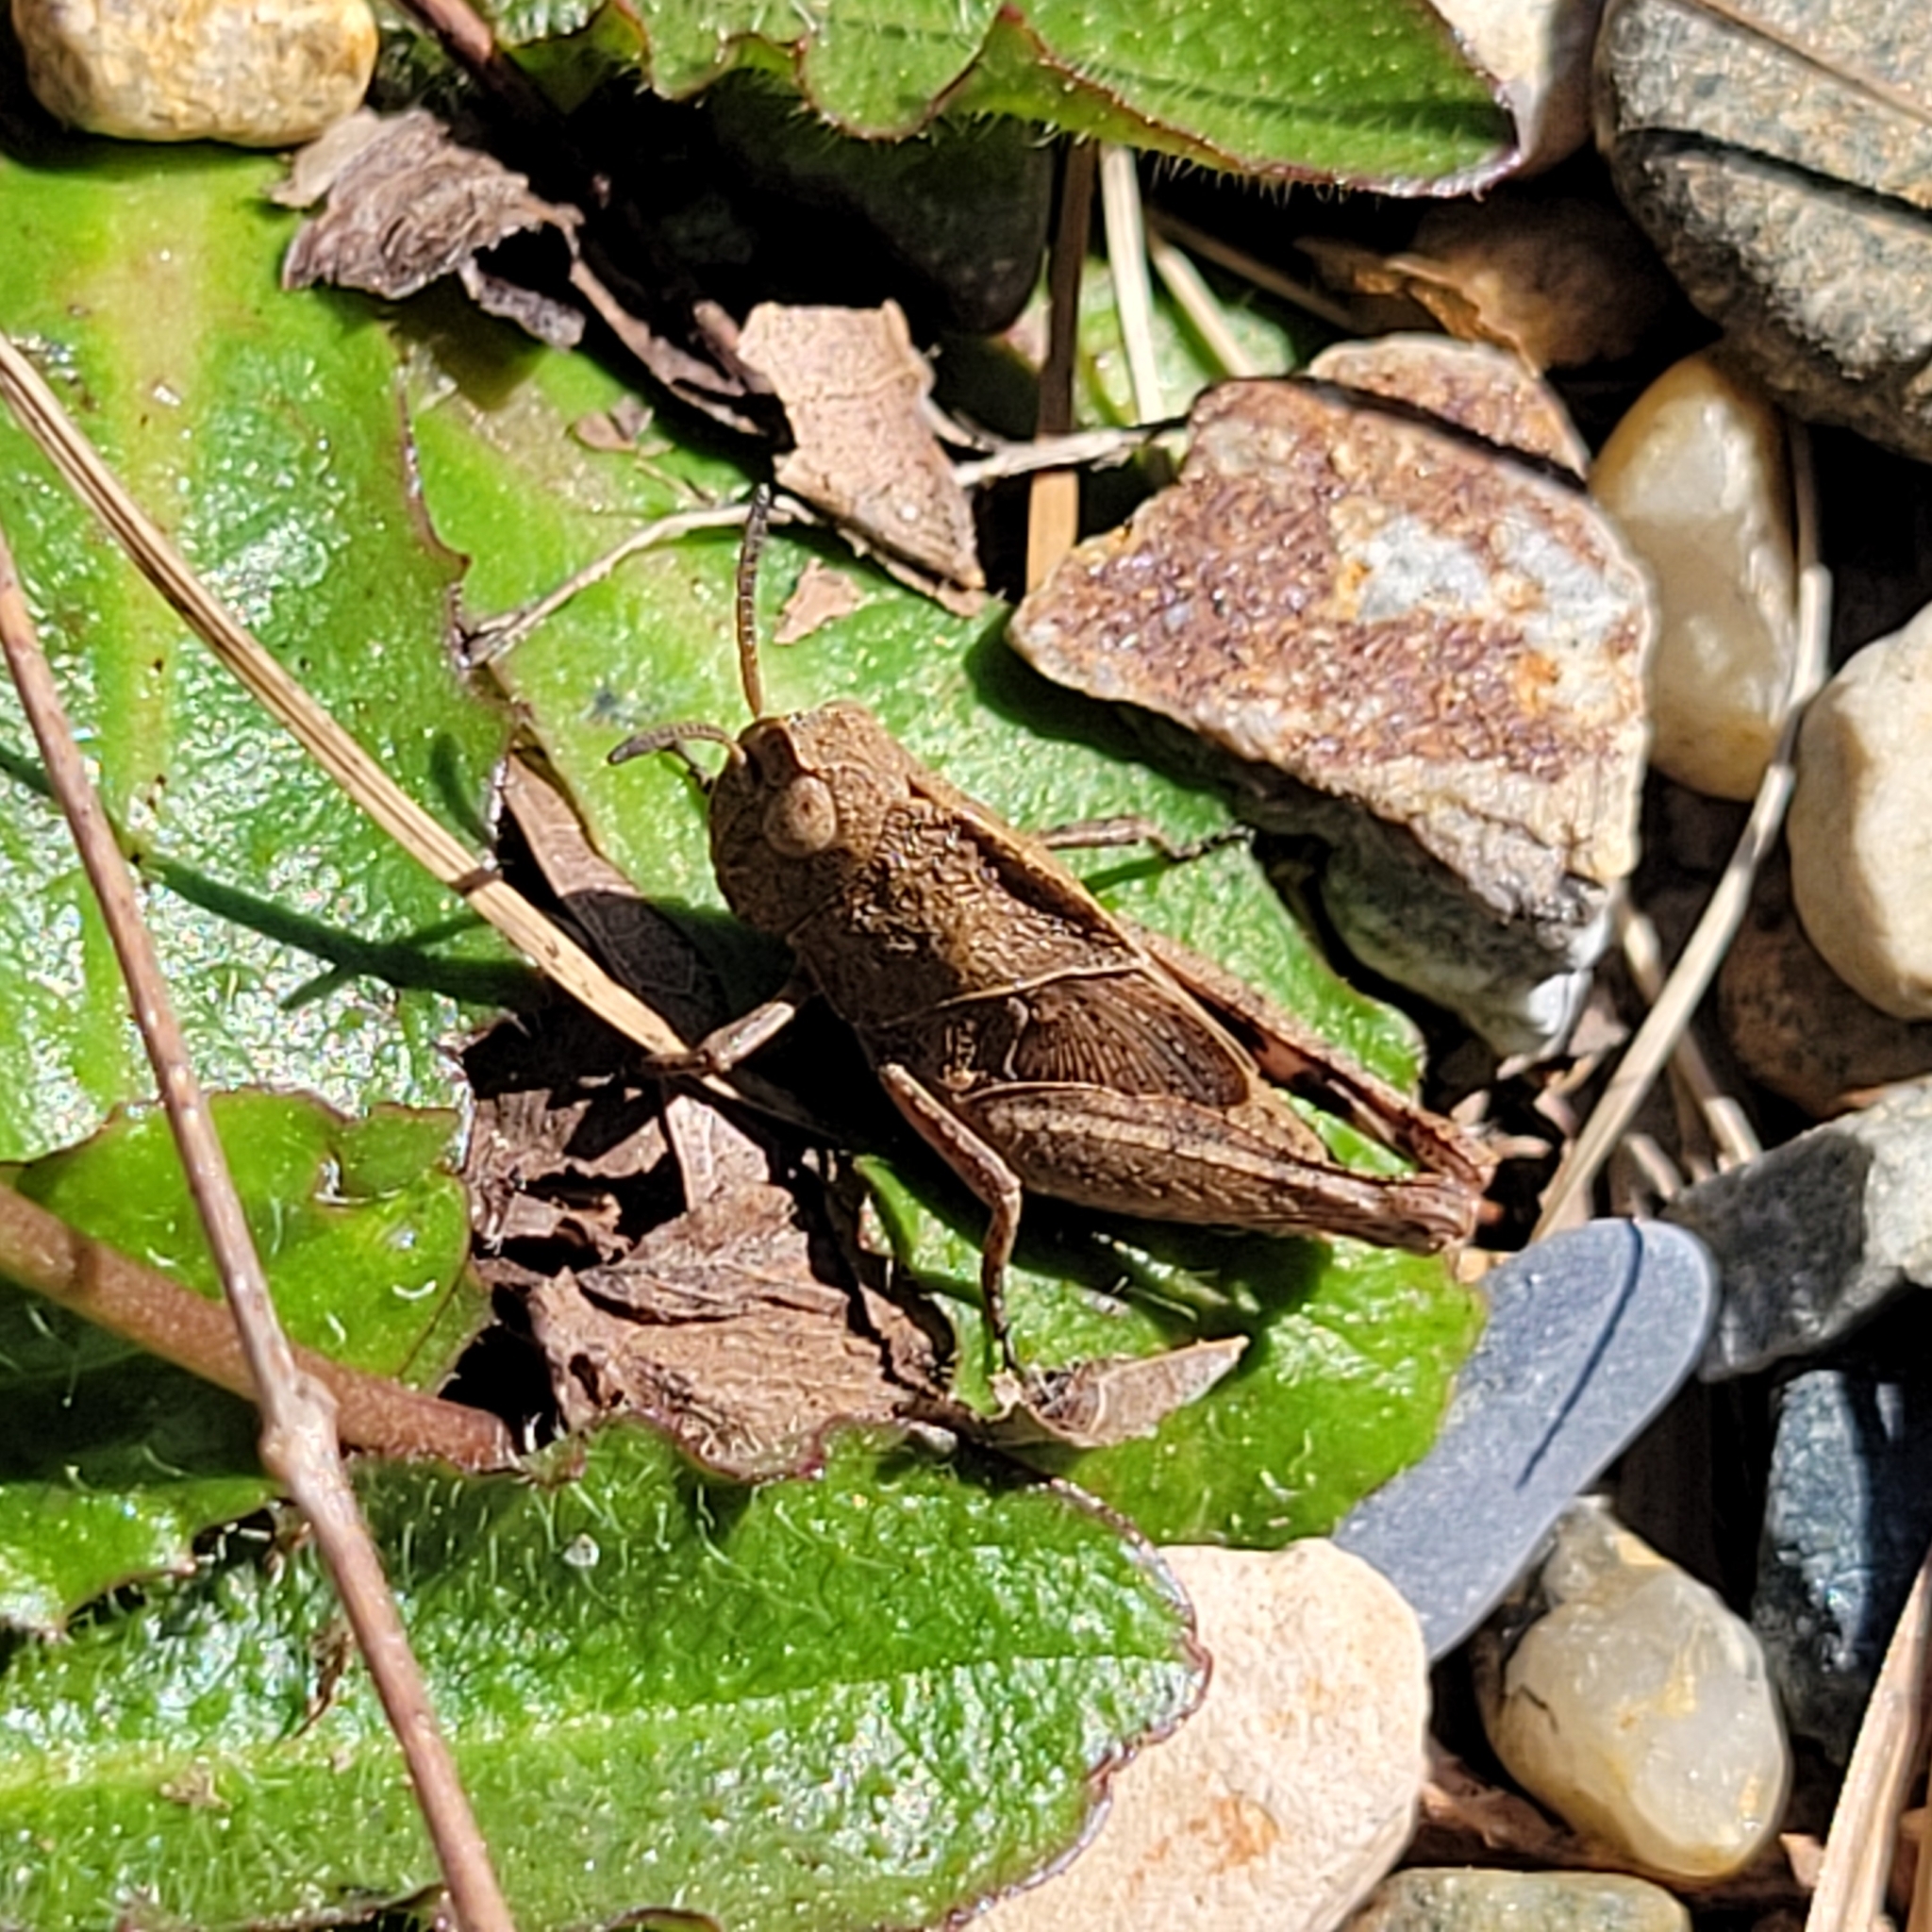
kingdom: Animalia
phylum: Arthropoda
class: Insecta
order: Orthoptera
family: Acrididae
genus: Arphia
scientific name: Arphia sulphurea
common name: Spring yellow-winged locust
